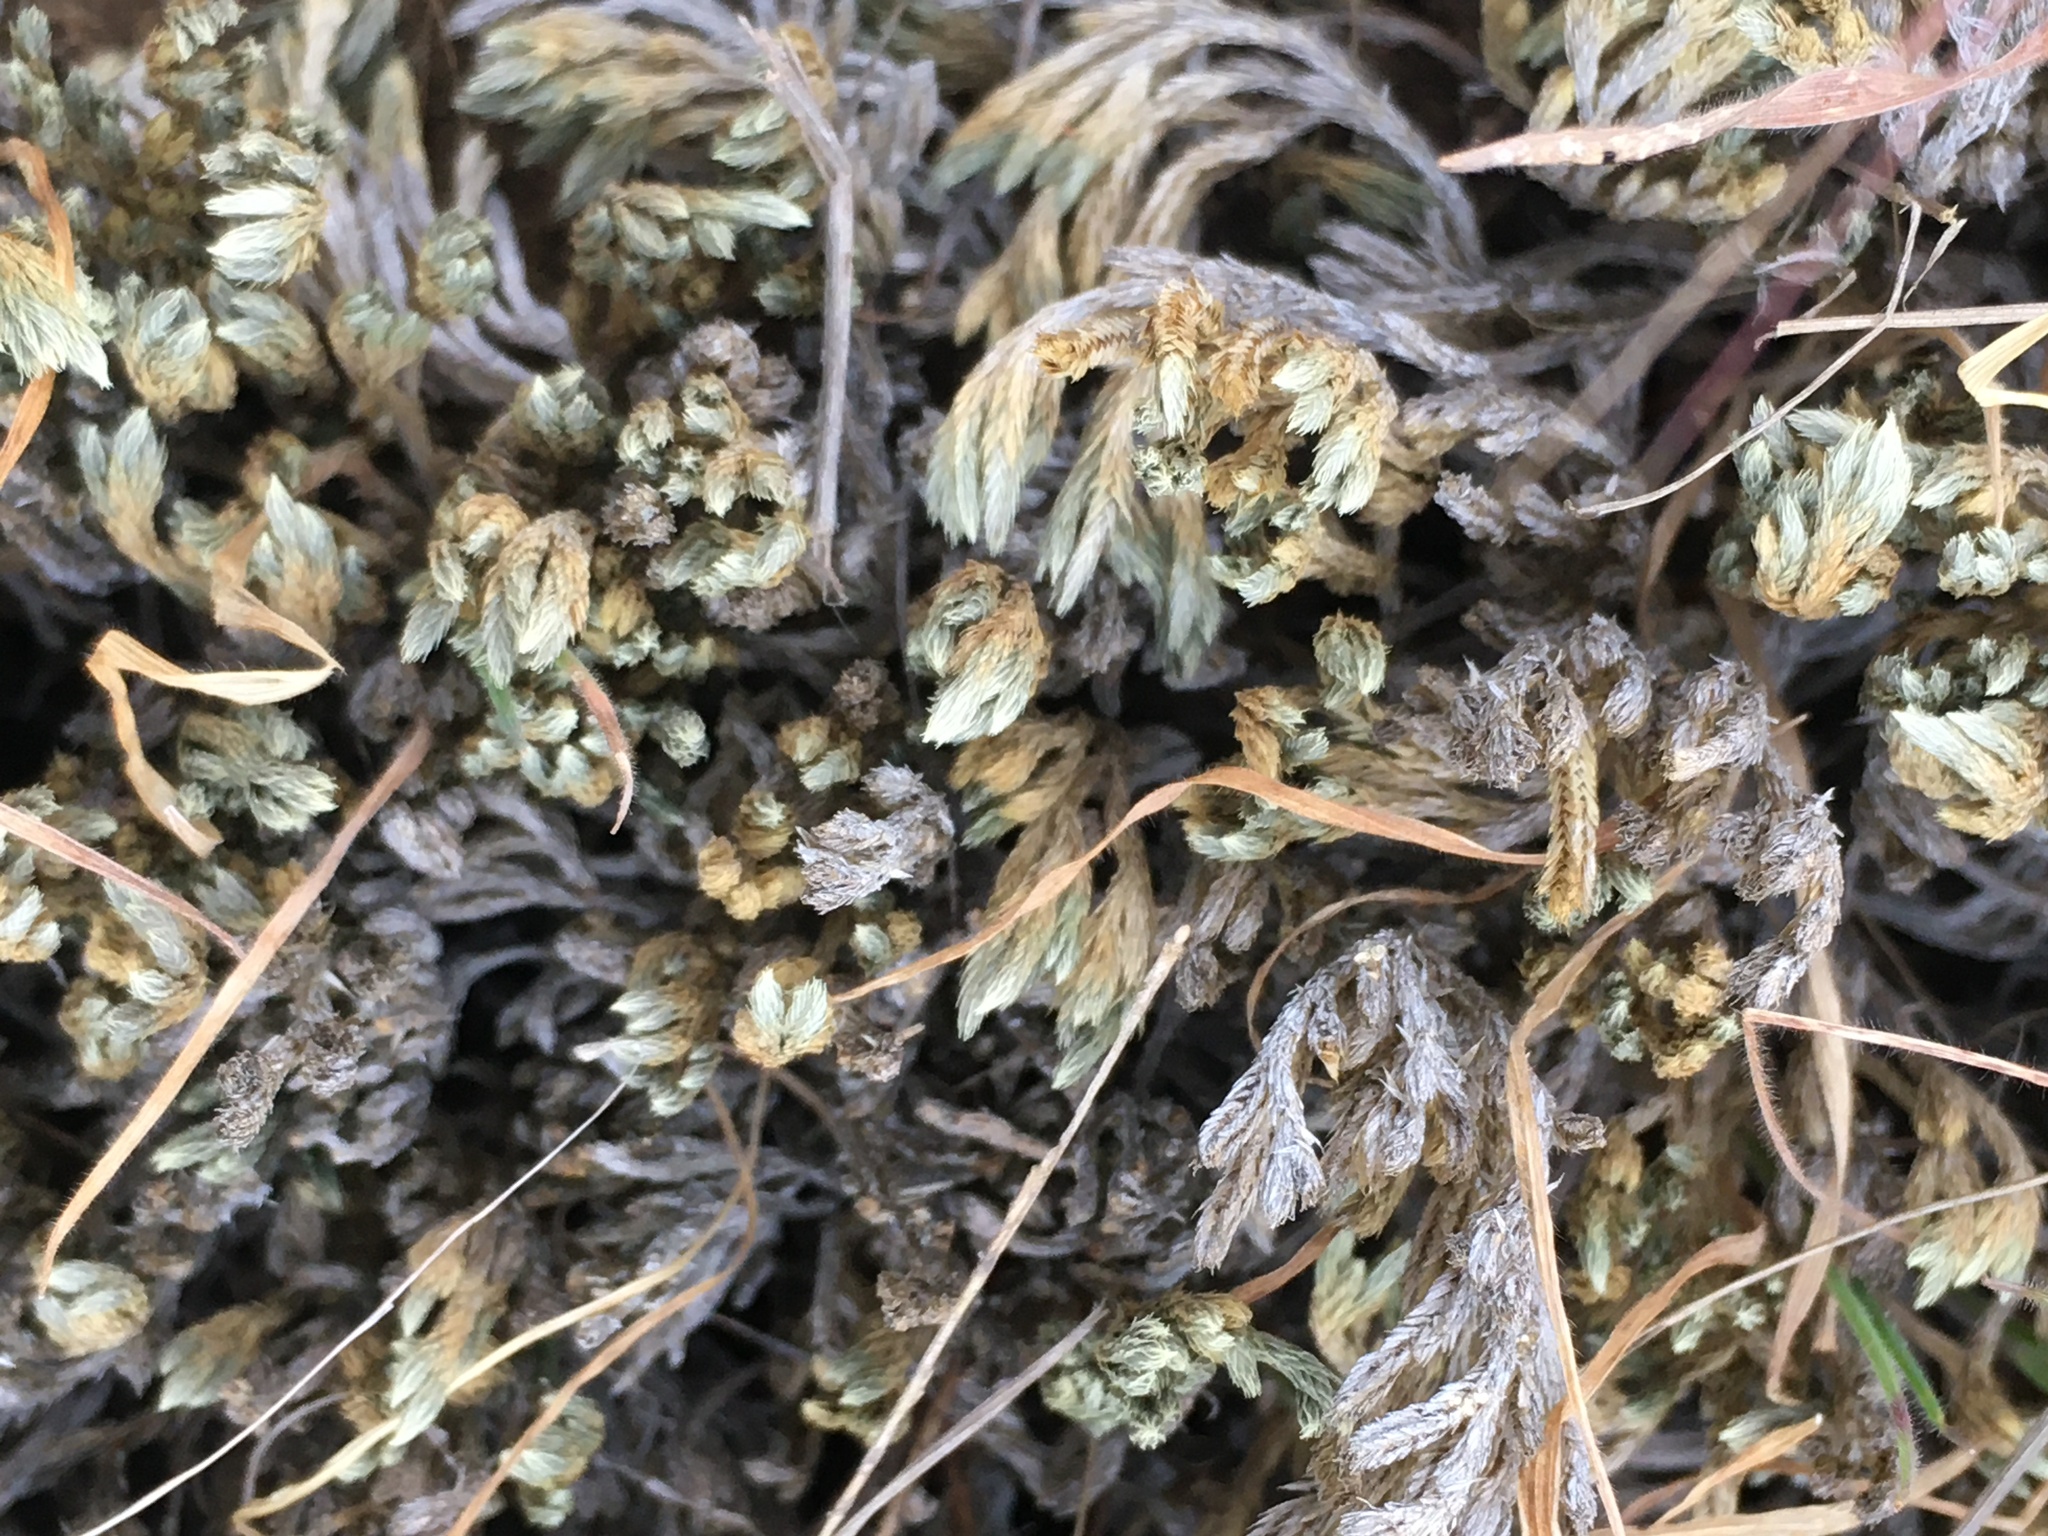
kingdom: Plantae
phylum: Tracheophyta
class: Lycopodiopsida
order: Selaginellales
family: Selaginellaceae
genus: Selaginella
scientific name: Selaginella bigelovii
